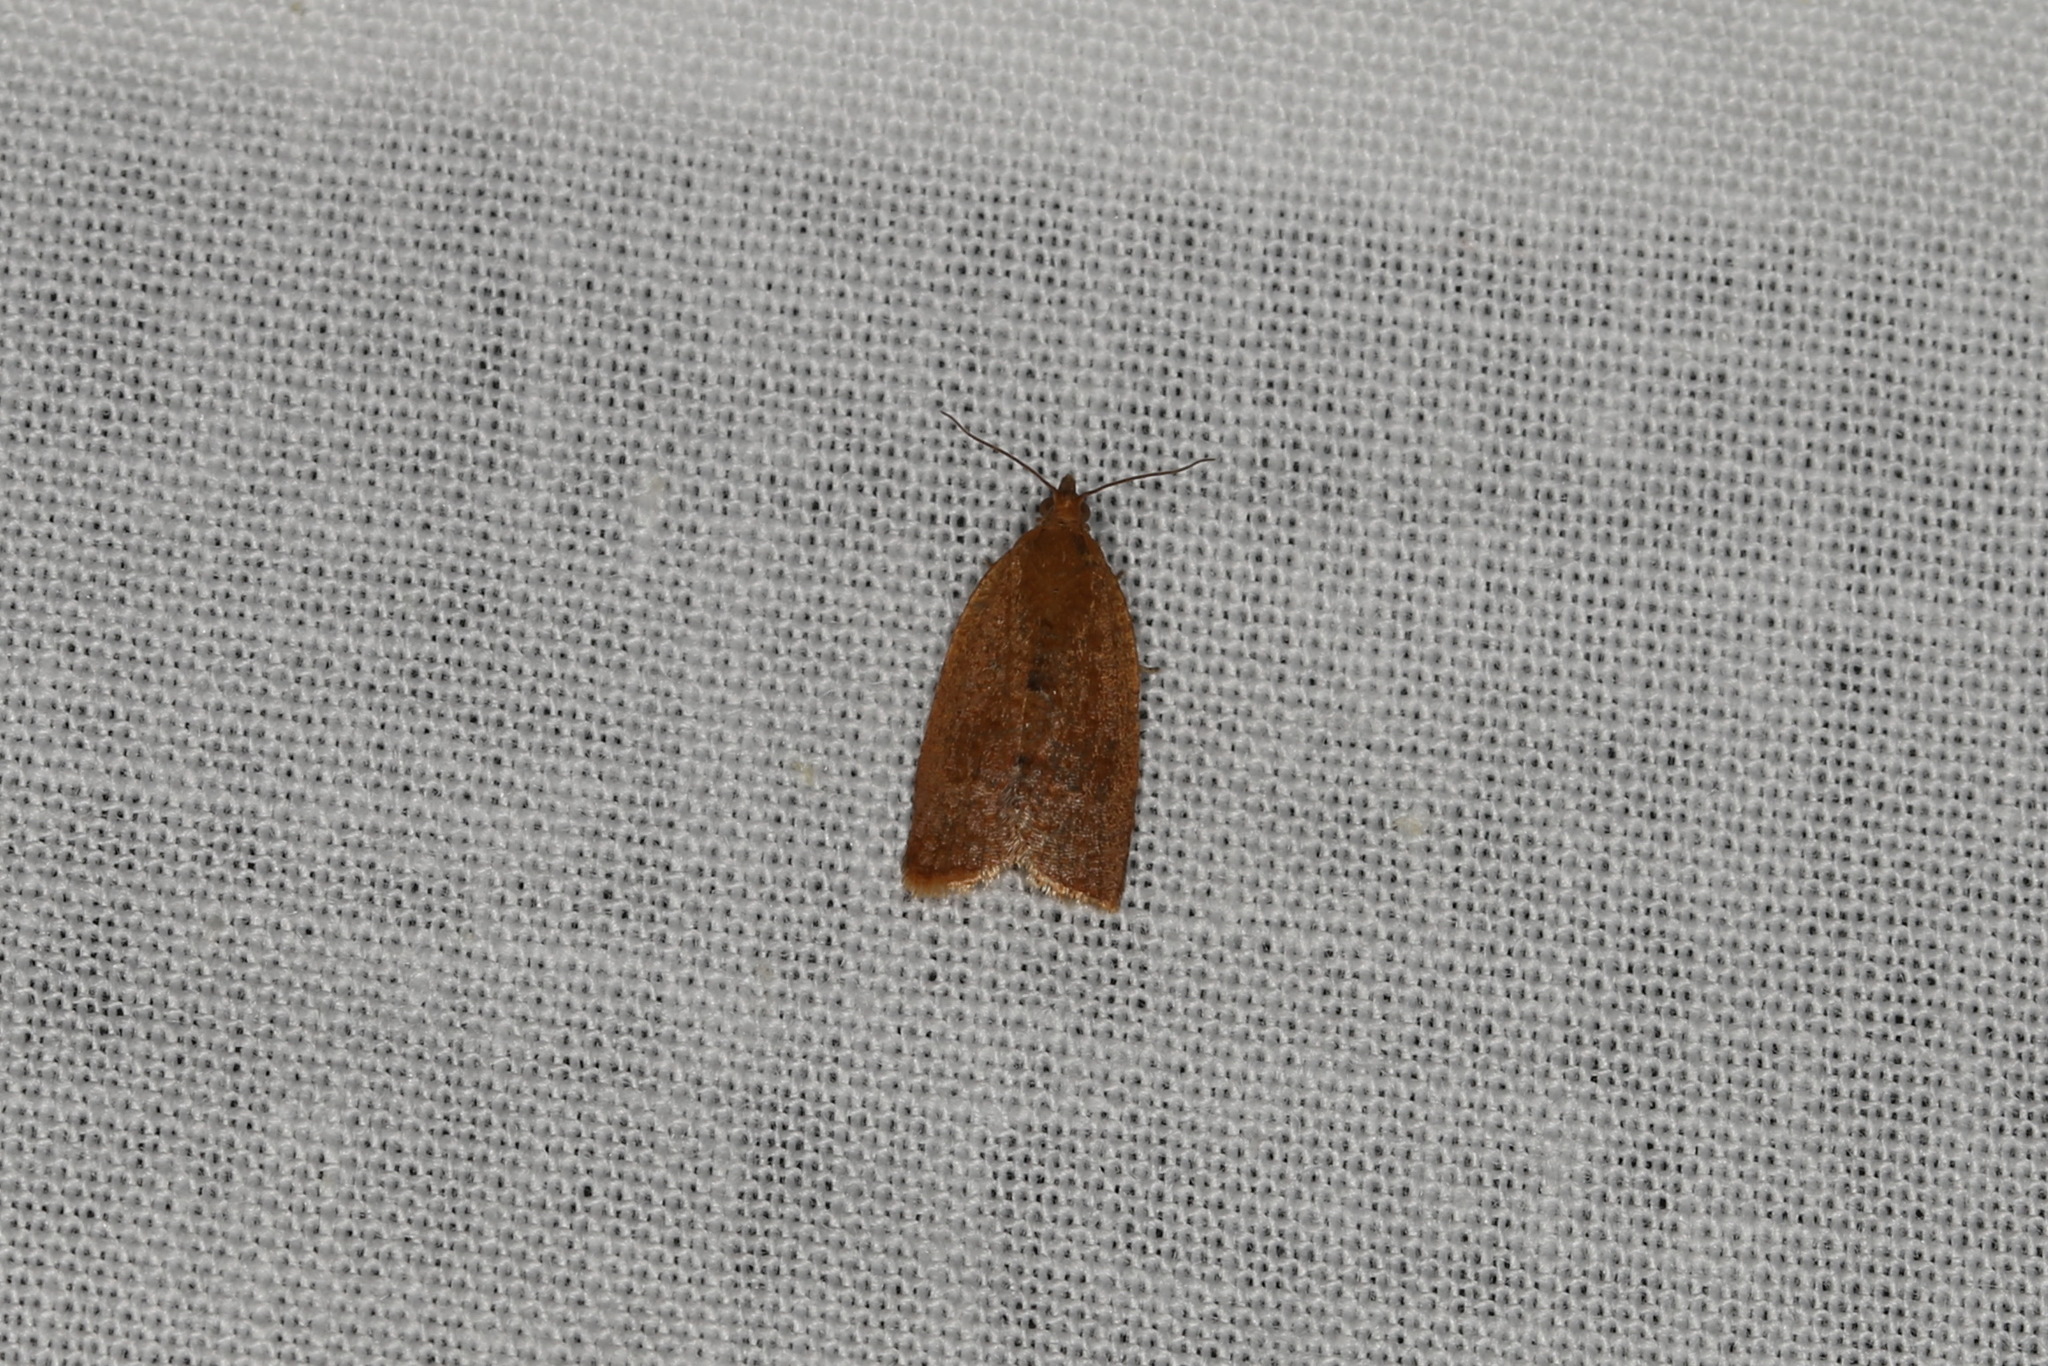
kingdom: Animalia
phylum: Arthropoda
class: Insecta
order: Lepidoptera
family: Tortricidae
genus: Clepsis
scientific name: Clepsis consimilana
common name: Privet tortrix
